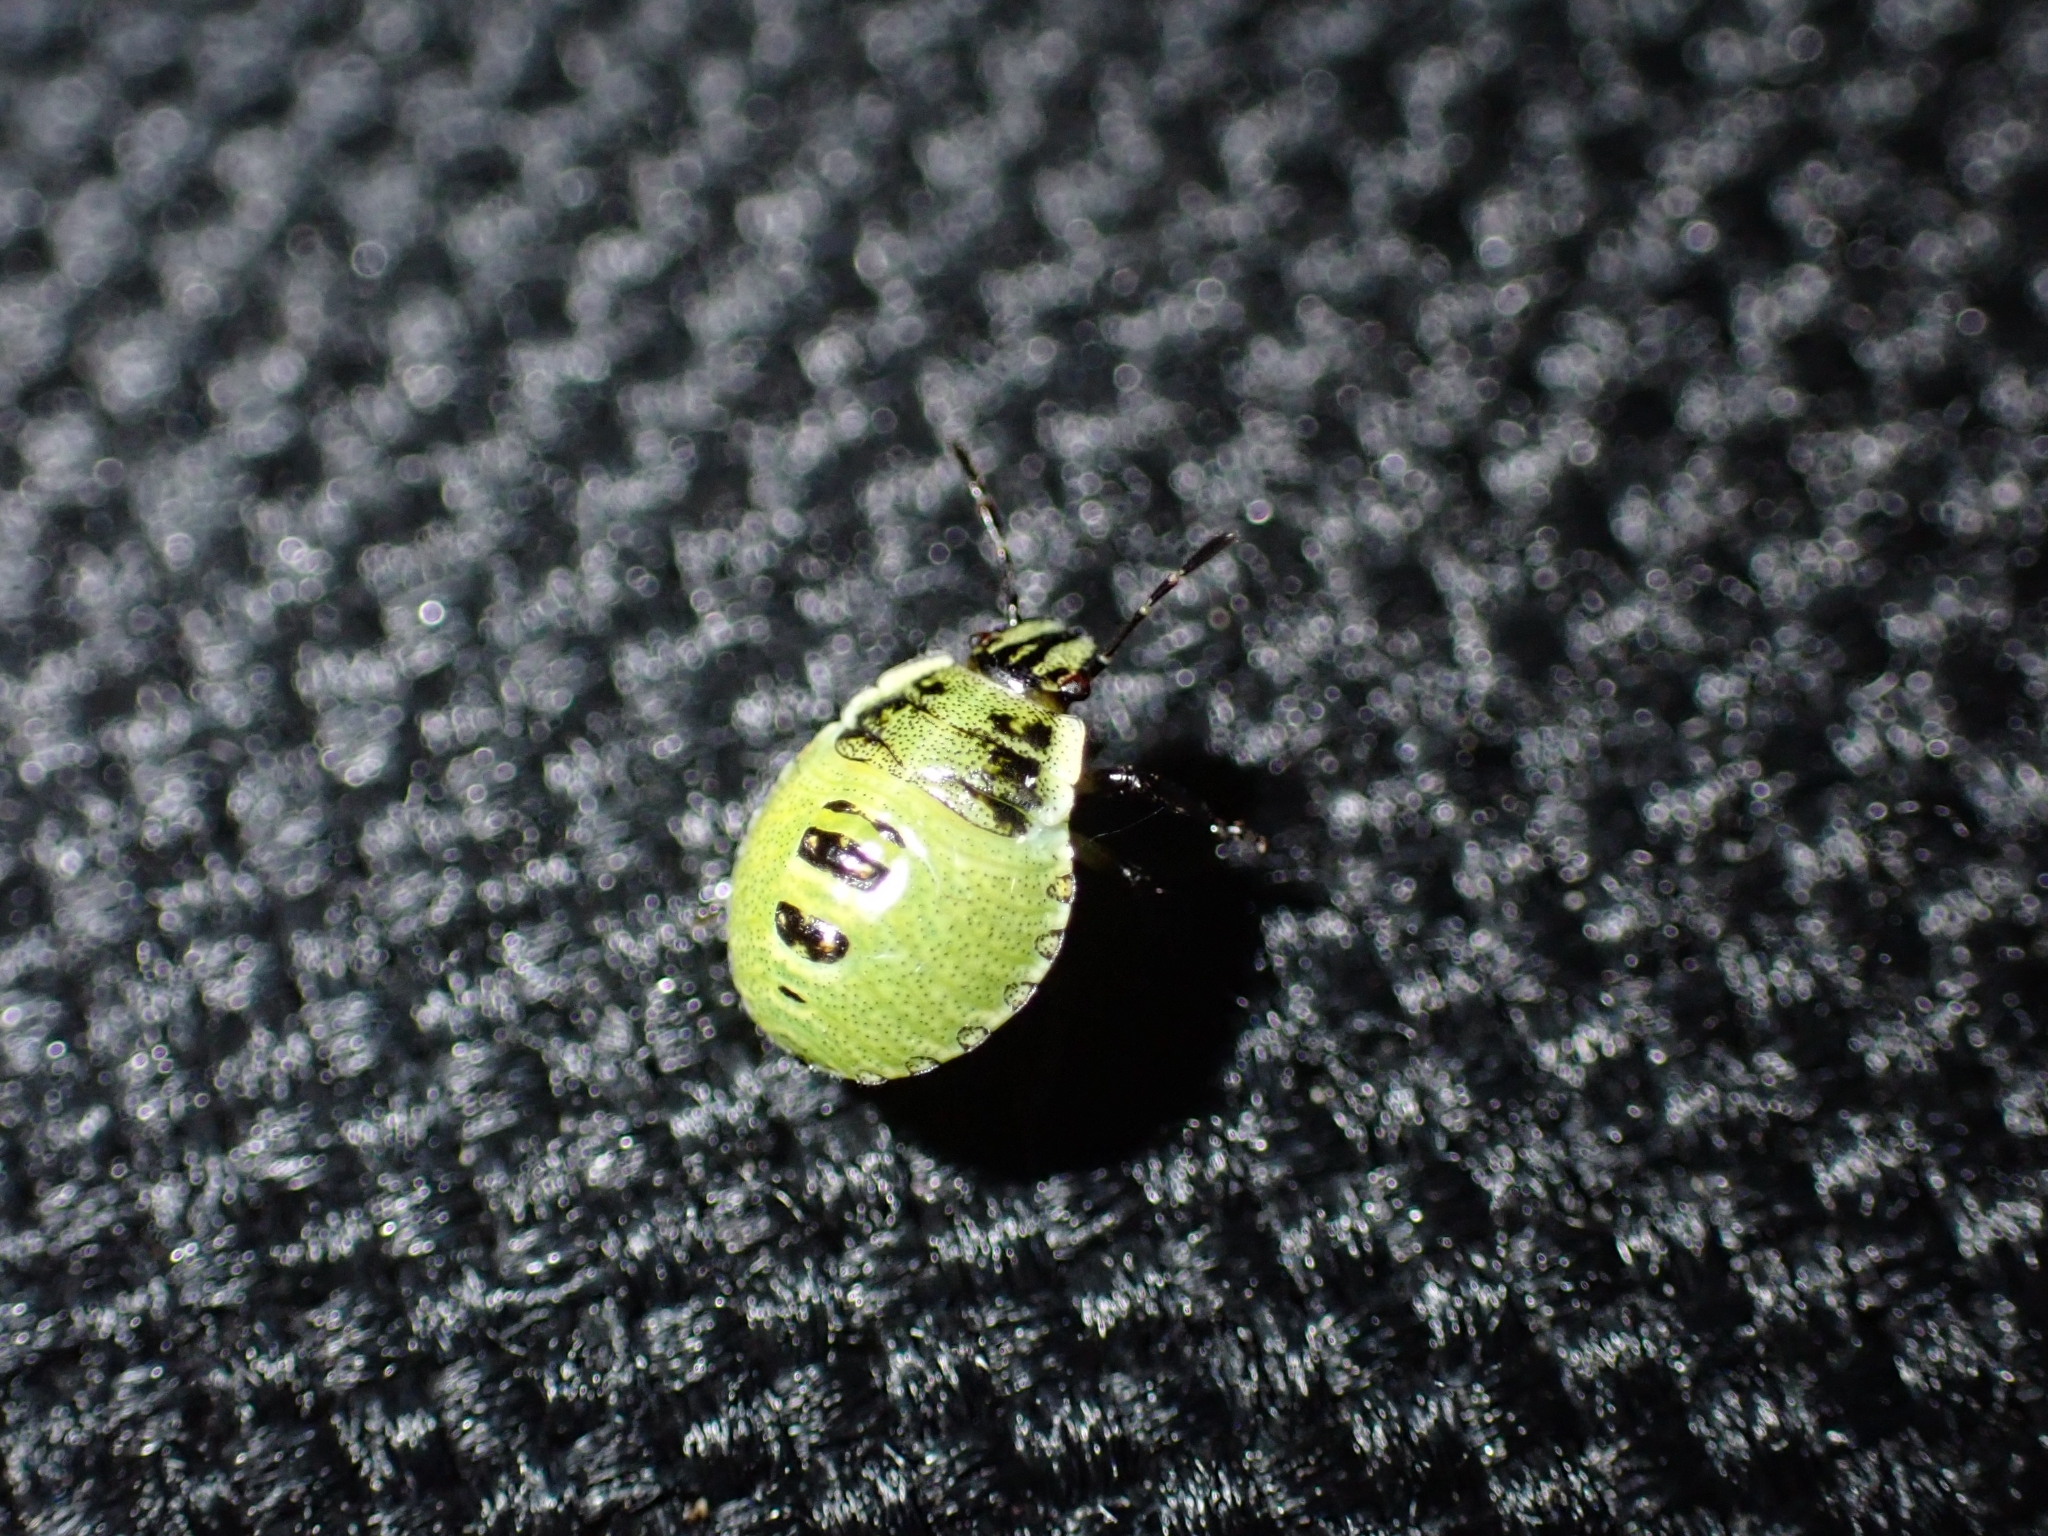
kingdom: Animalia
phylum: Arthropoda
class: Insecta
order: Hemiptera
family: Pentatomidae
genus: Palomena
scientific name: Palomena prasina
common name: Green shieldbug
